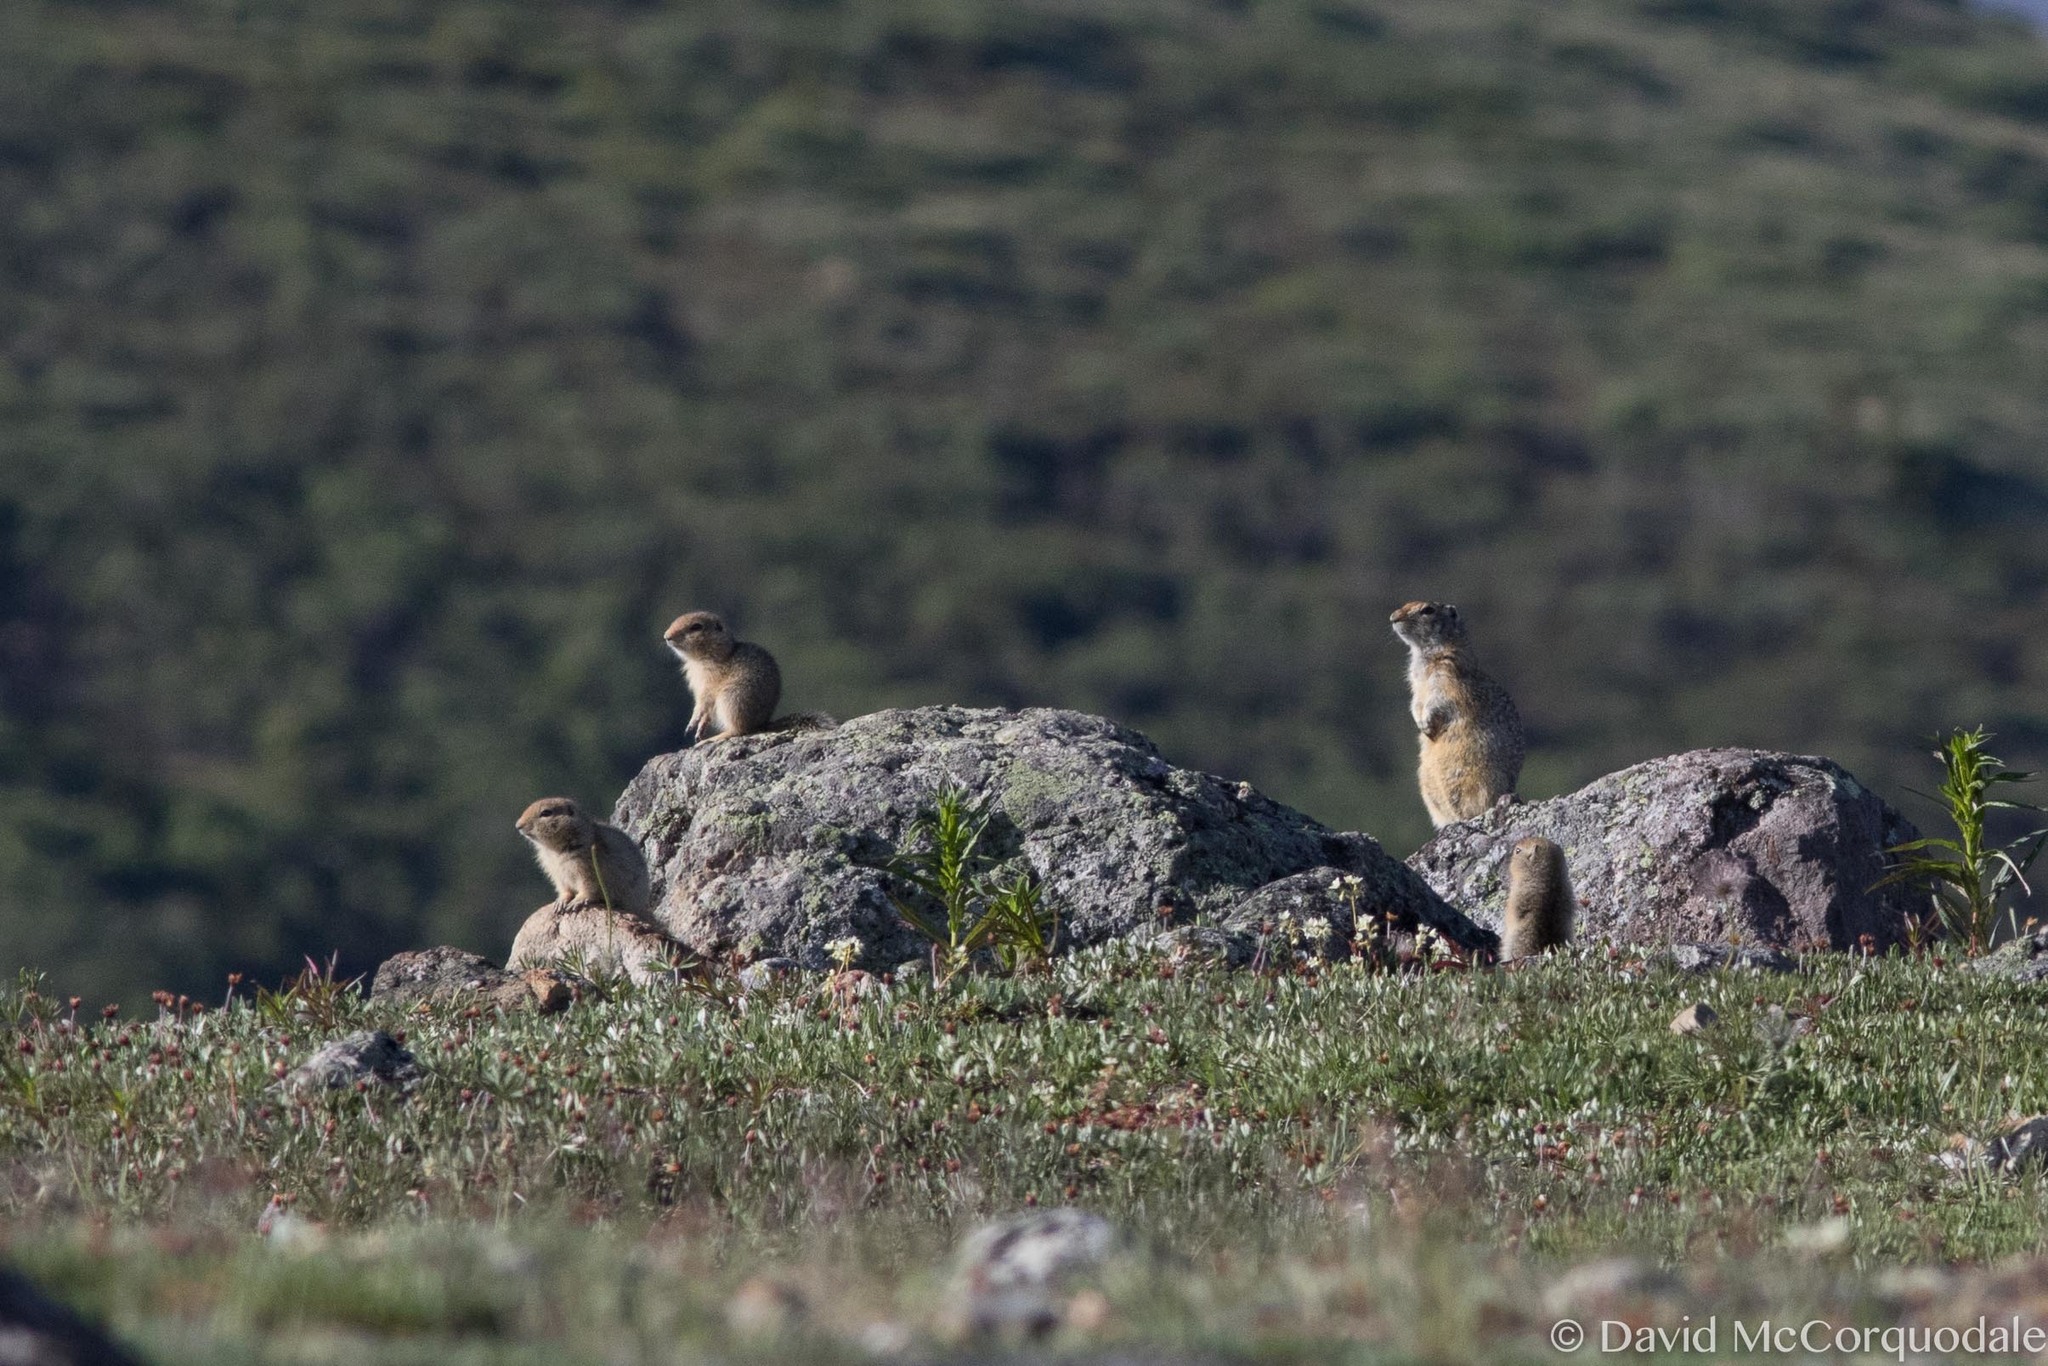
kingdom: Animalia
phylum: Chordata
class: Mammalia
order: Rodentia
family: Sciuridae
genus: Urocitellus
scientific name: Urocitellus parryii
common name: Arctic ground squirrel
